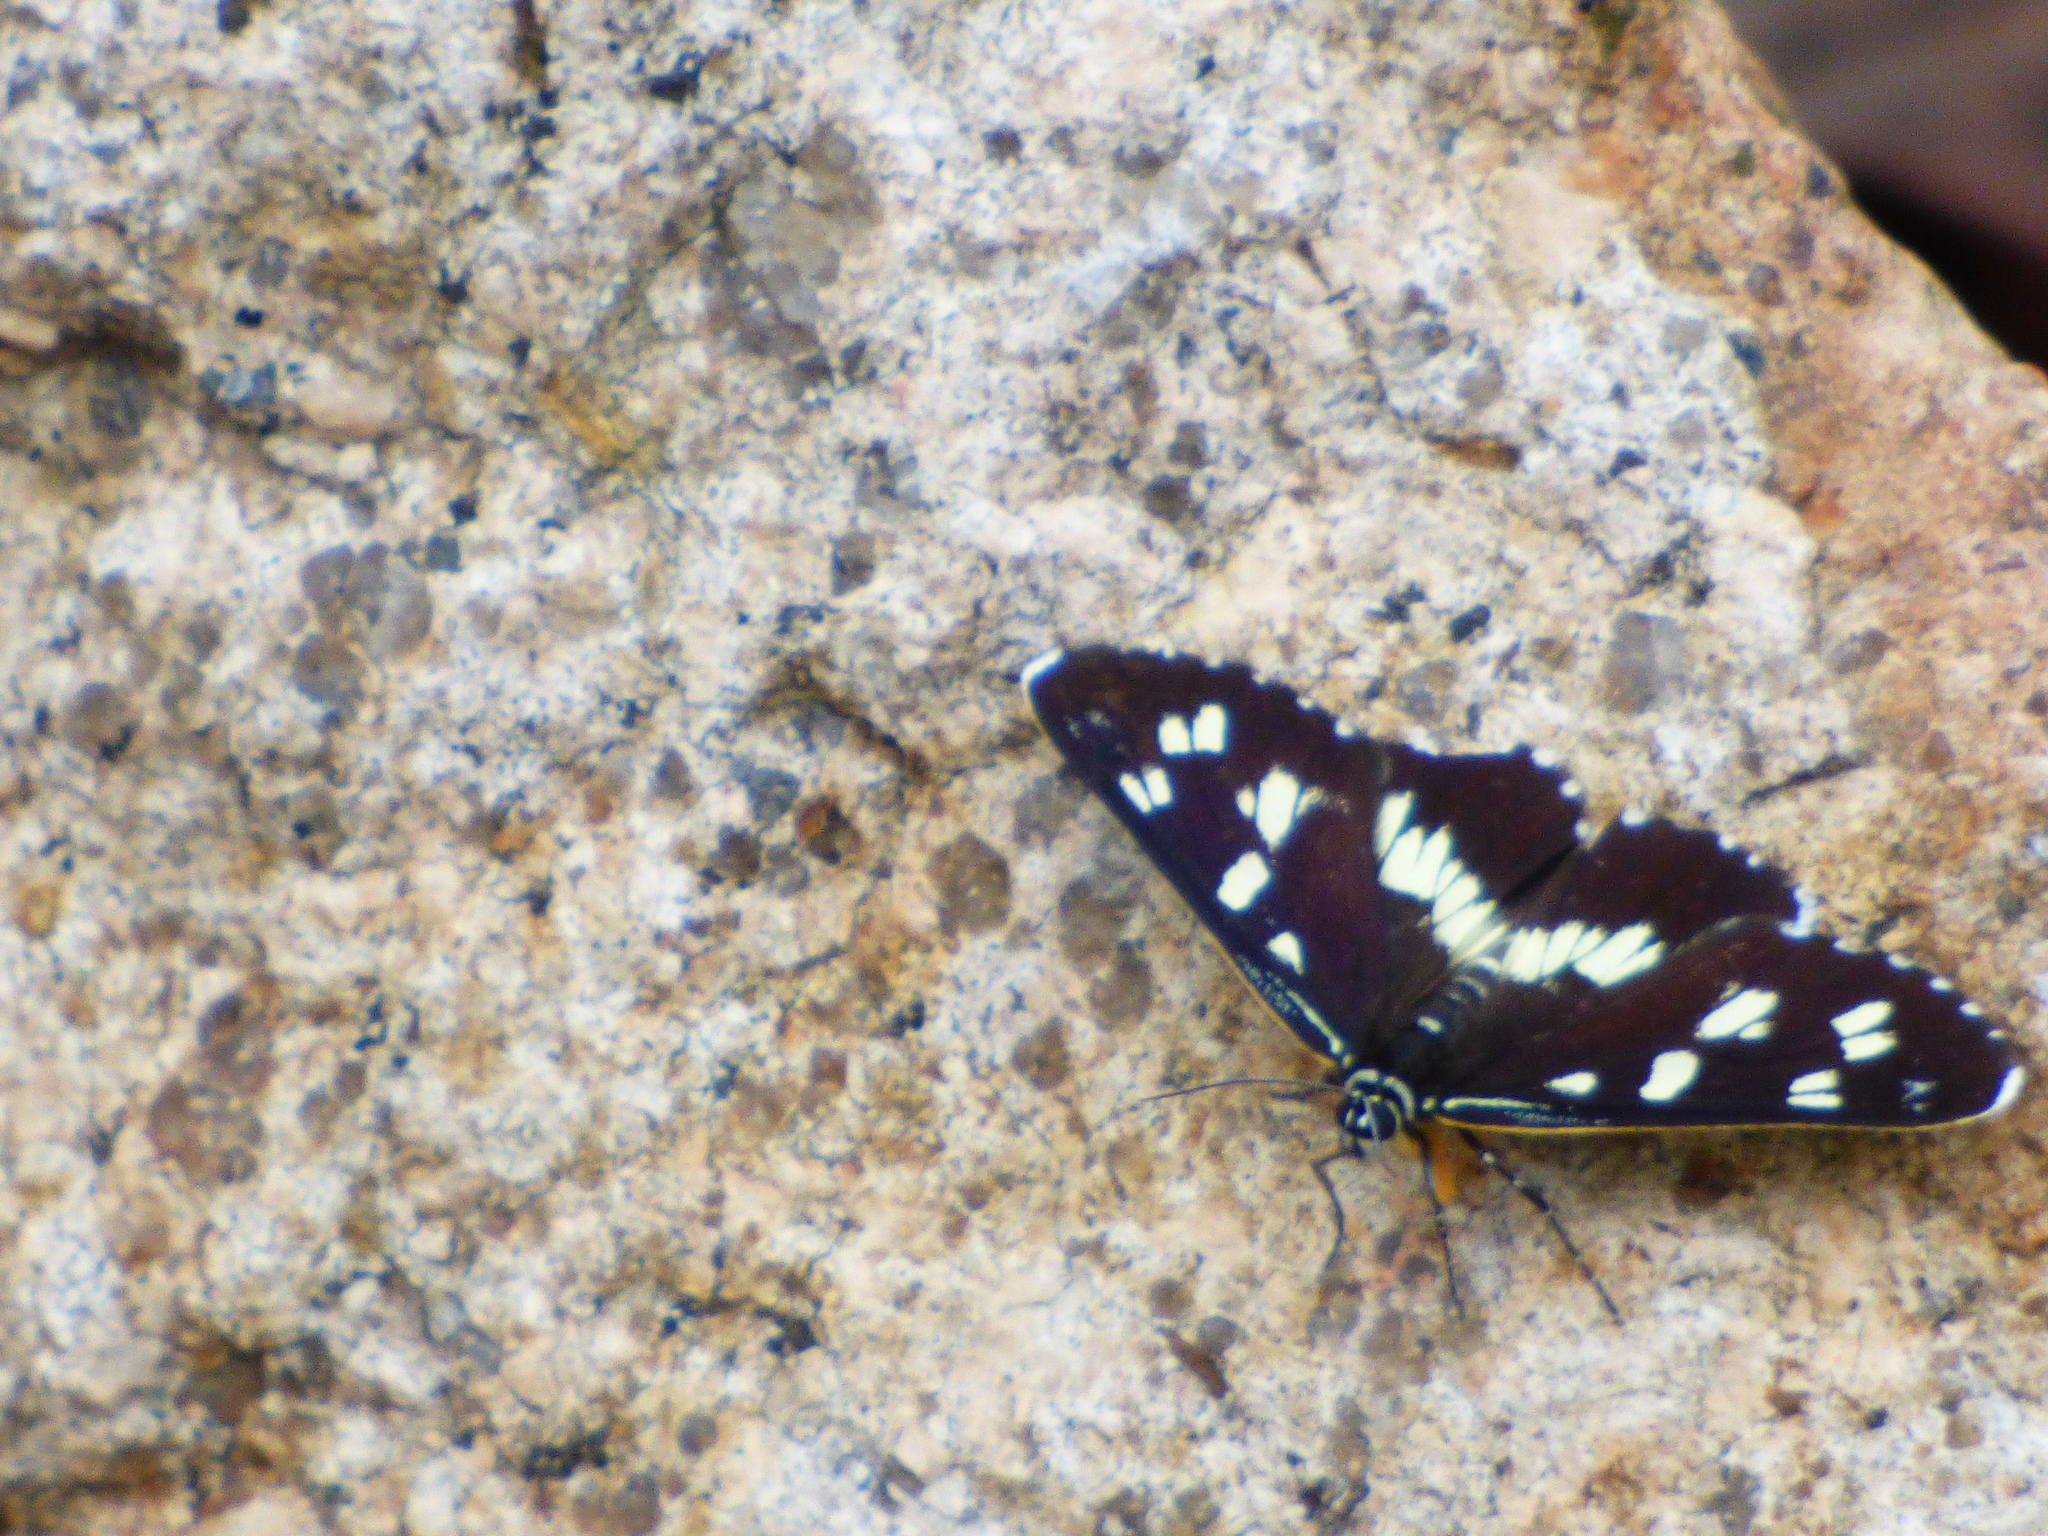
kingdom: Animalia
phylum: Arthropoda
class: Insecta
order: Lepidoptera
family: Noctuidae
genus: Cruria
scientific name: Cruria donowani
